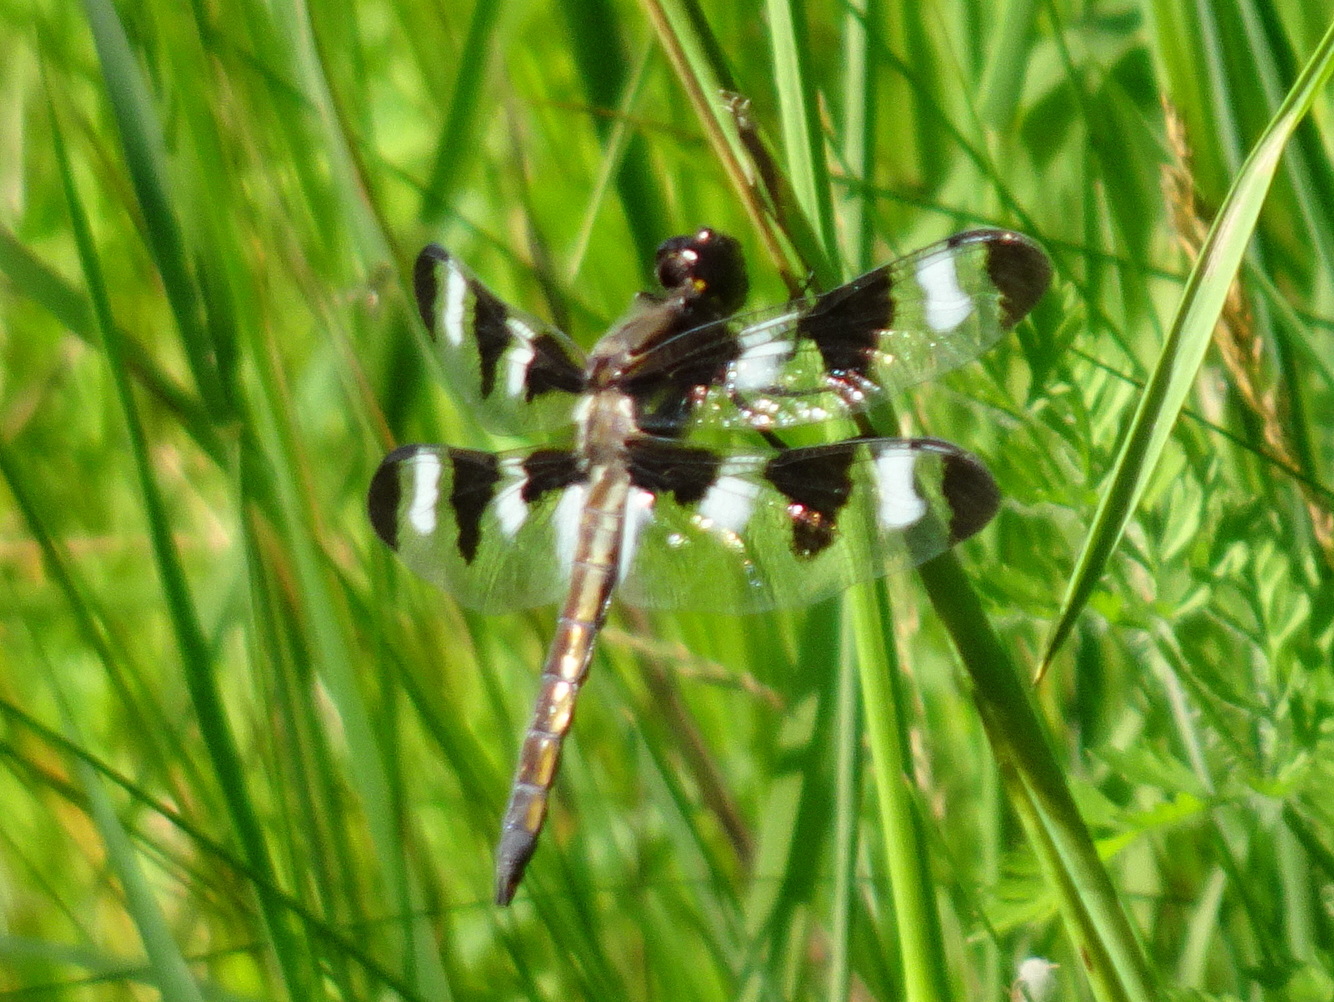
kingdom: Animalia
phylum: Arthropoda
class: Insecta
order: Odonata
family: Libellulidae
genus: Libellula
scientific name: Libellula pulchella
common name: Twelve-spotted skimmer
